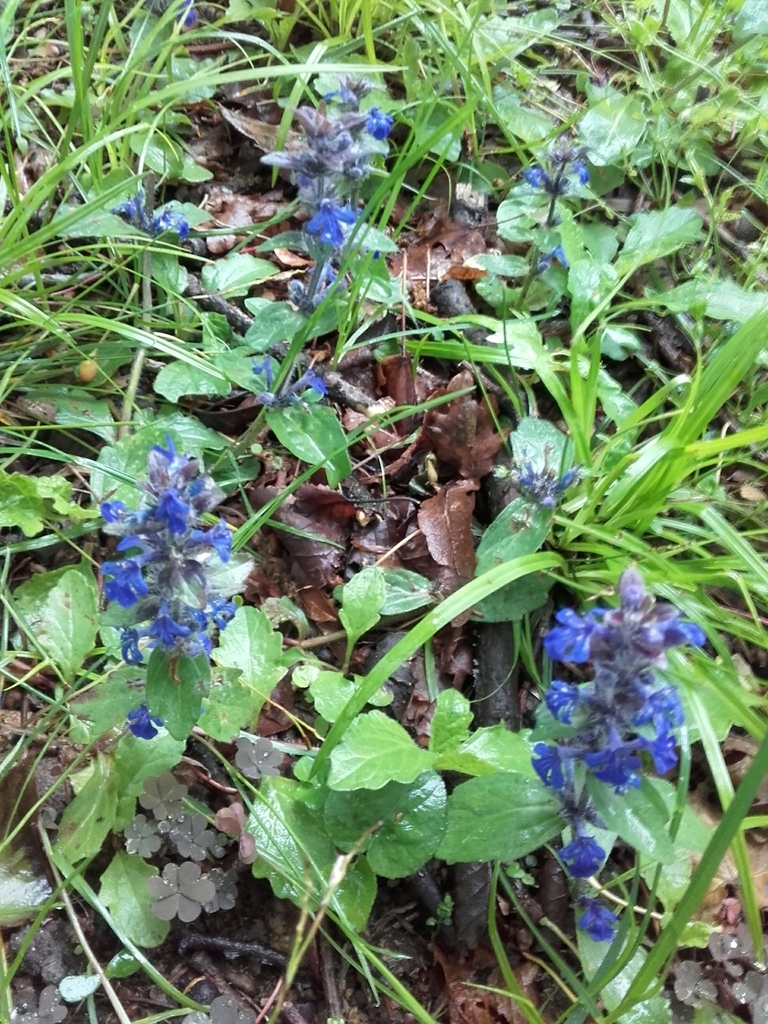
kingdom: Plantae
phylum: Tracheophyta
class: Magnoliopsida
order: Lamiales
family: Lamiaceae
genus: Ajuga
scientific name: Ajuga reptans
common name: Bugle
